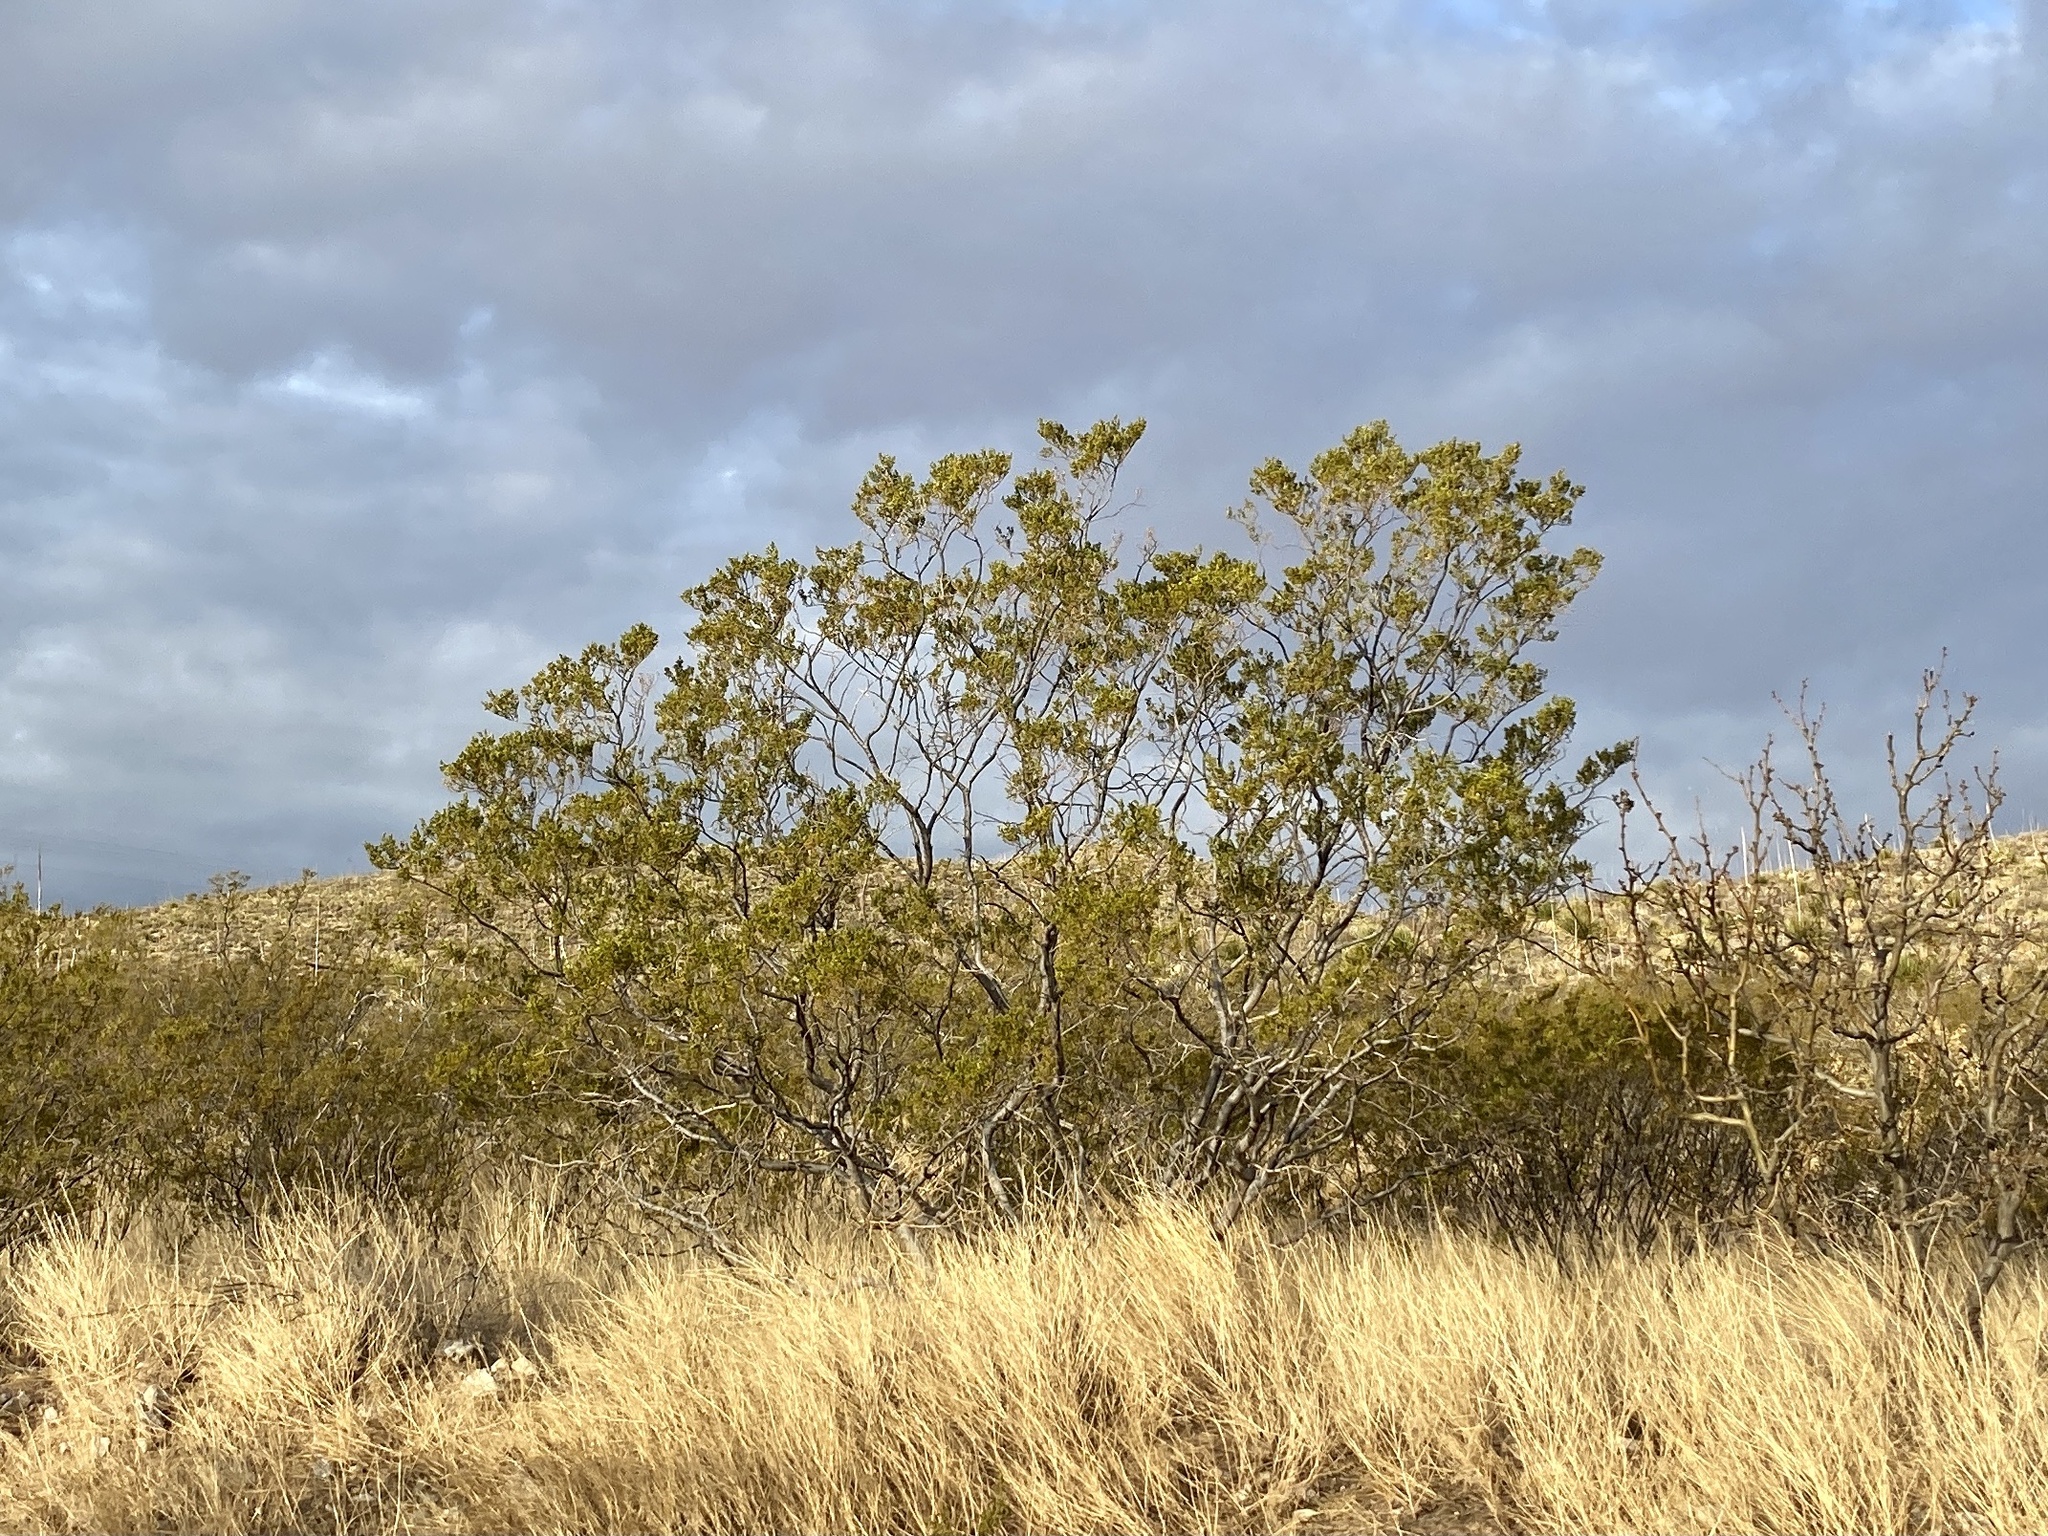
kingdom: Plantae
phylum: Tracheophyta
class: Magnoliopsida
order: Zygophyllales
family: Zygophyllaceae
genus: Larrea
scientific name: Larrea tridentata
